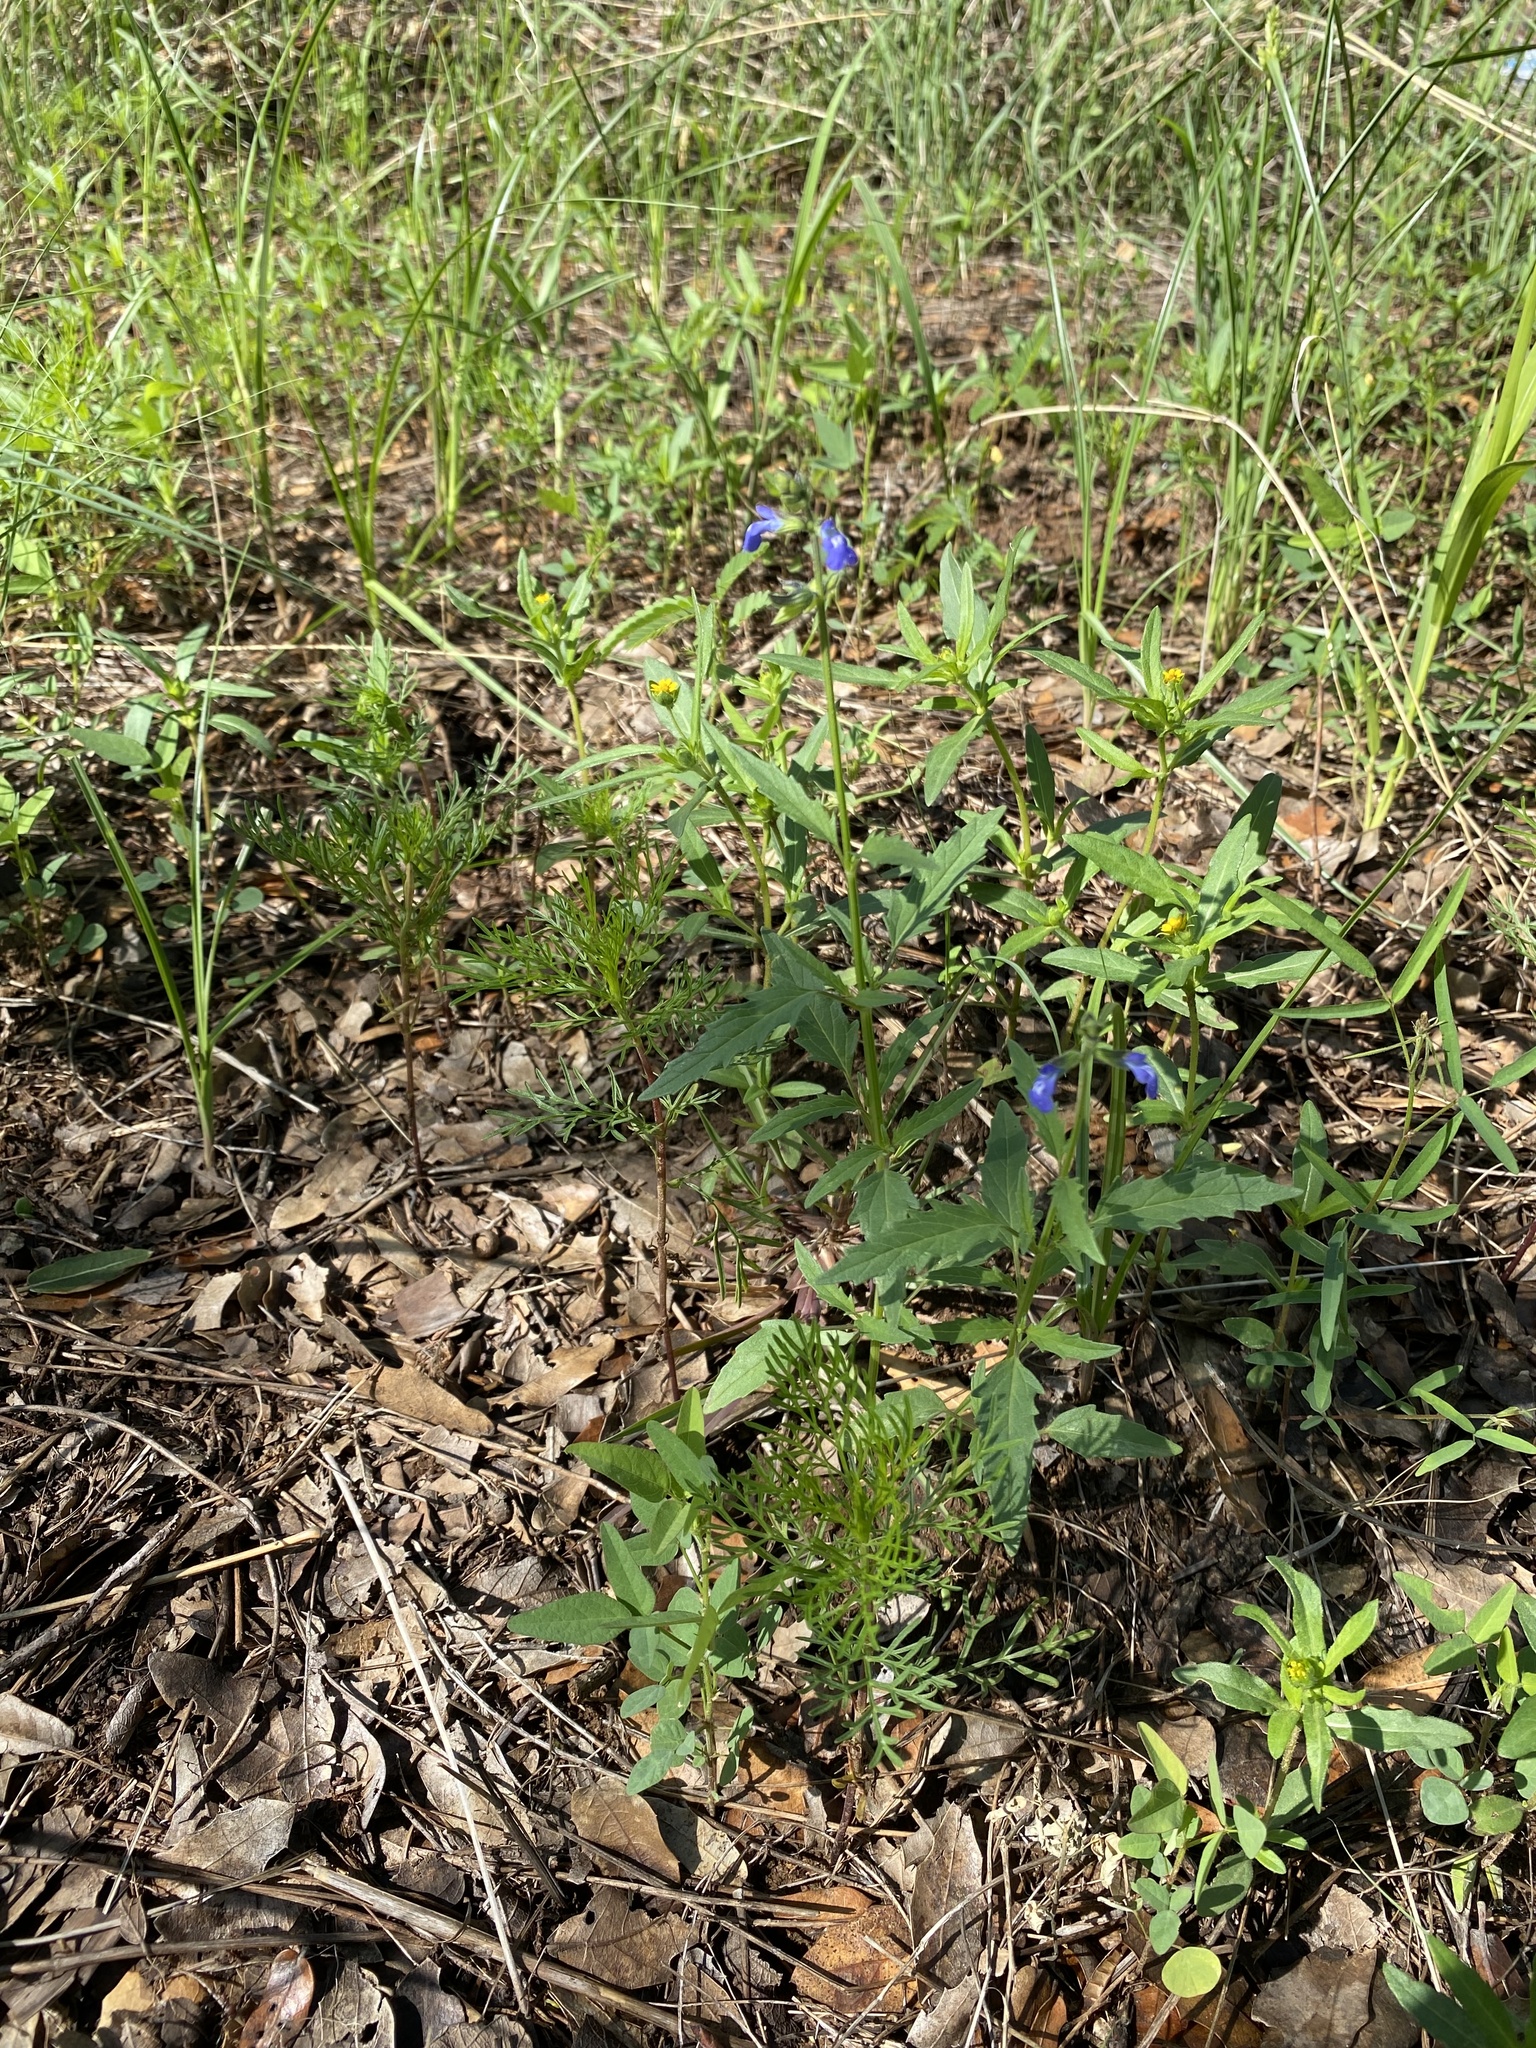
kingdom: Plantae
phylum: Tracheophyta
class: Magnoliopsida
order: Lamiales
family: Lamiaceae
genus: Salvia
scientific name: Salvia subincisa
